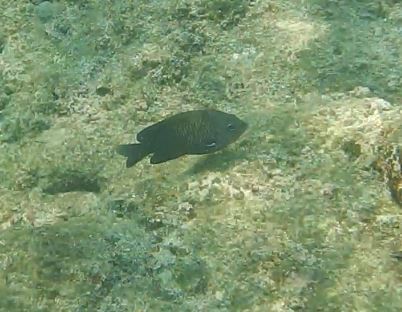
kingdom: Animalia
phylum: Chordata
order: Perciformes
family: Pomacentridae
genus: Stegastes
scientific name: Stegastes acapulcoensis
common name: Acapulco damselfish
